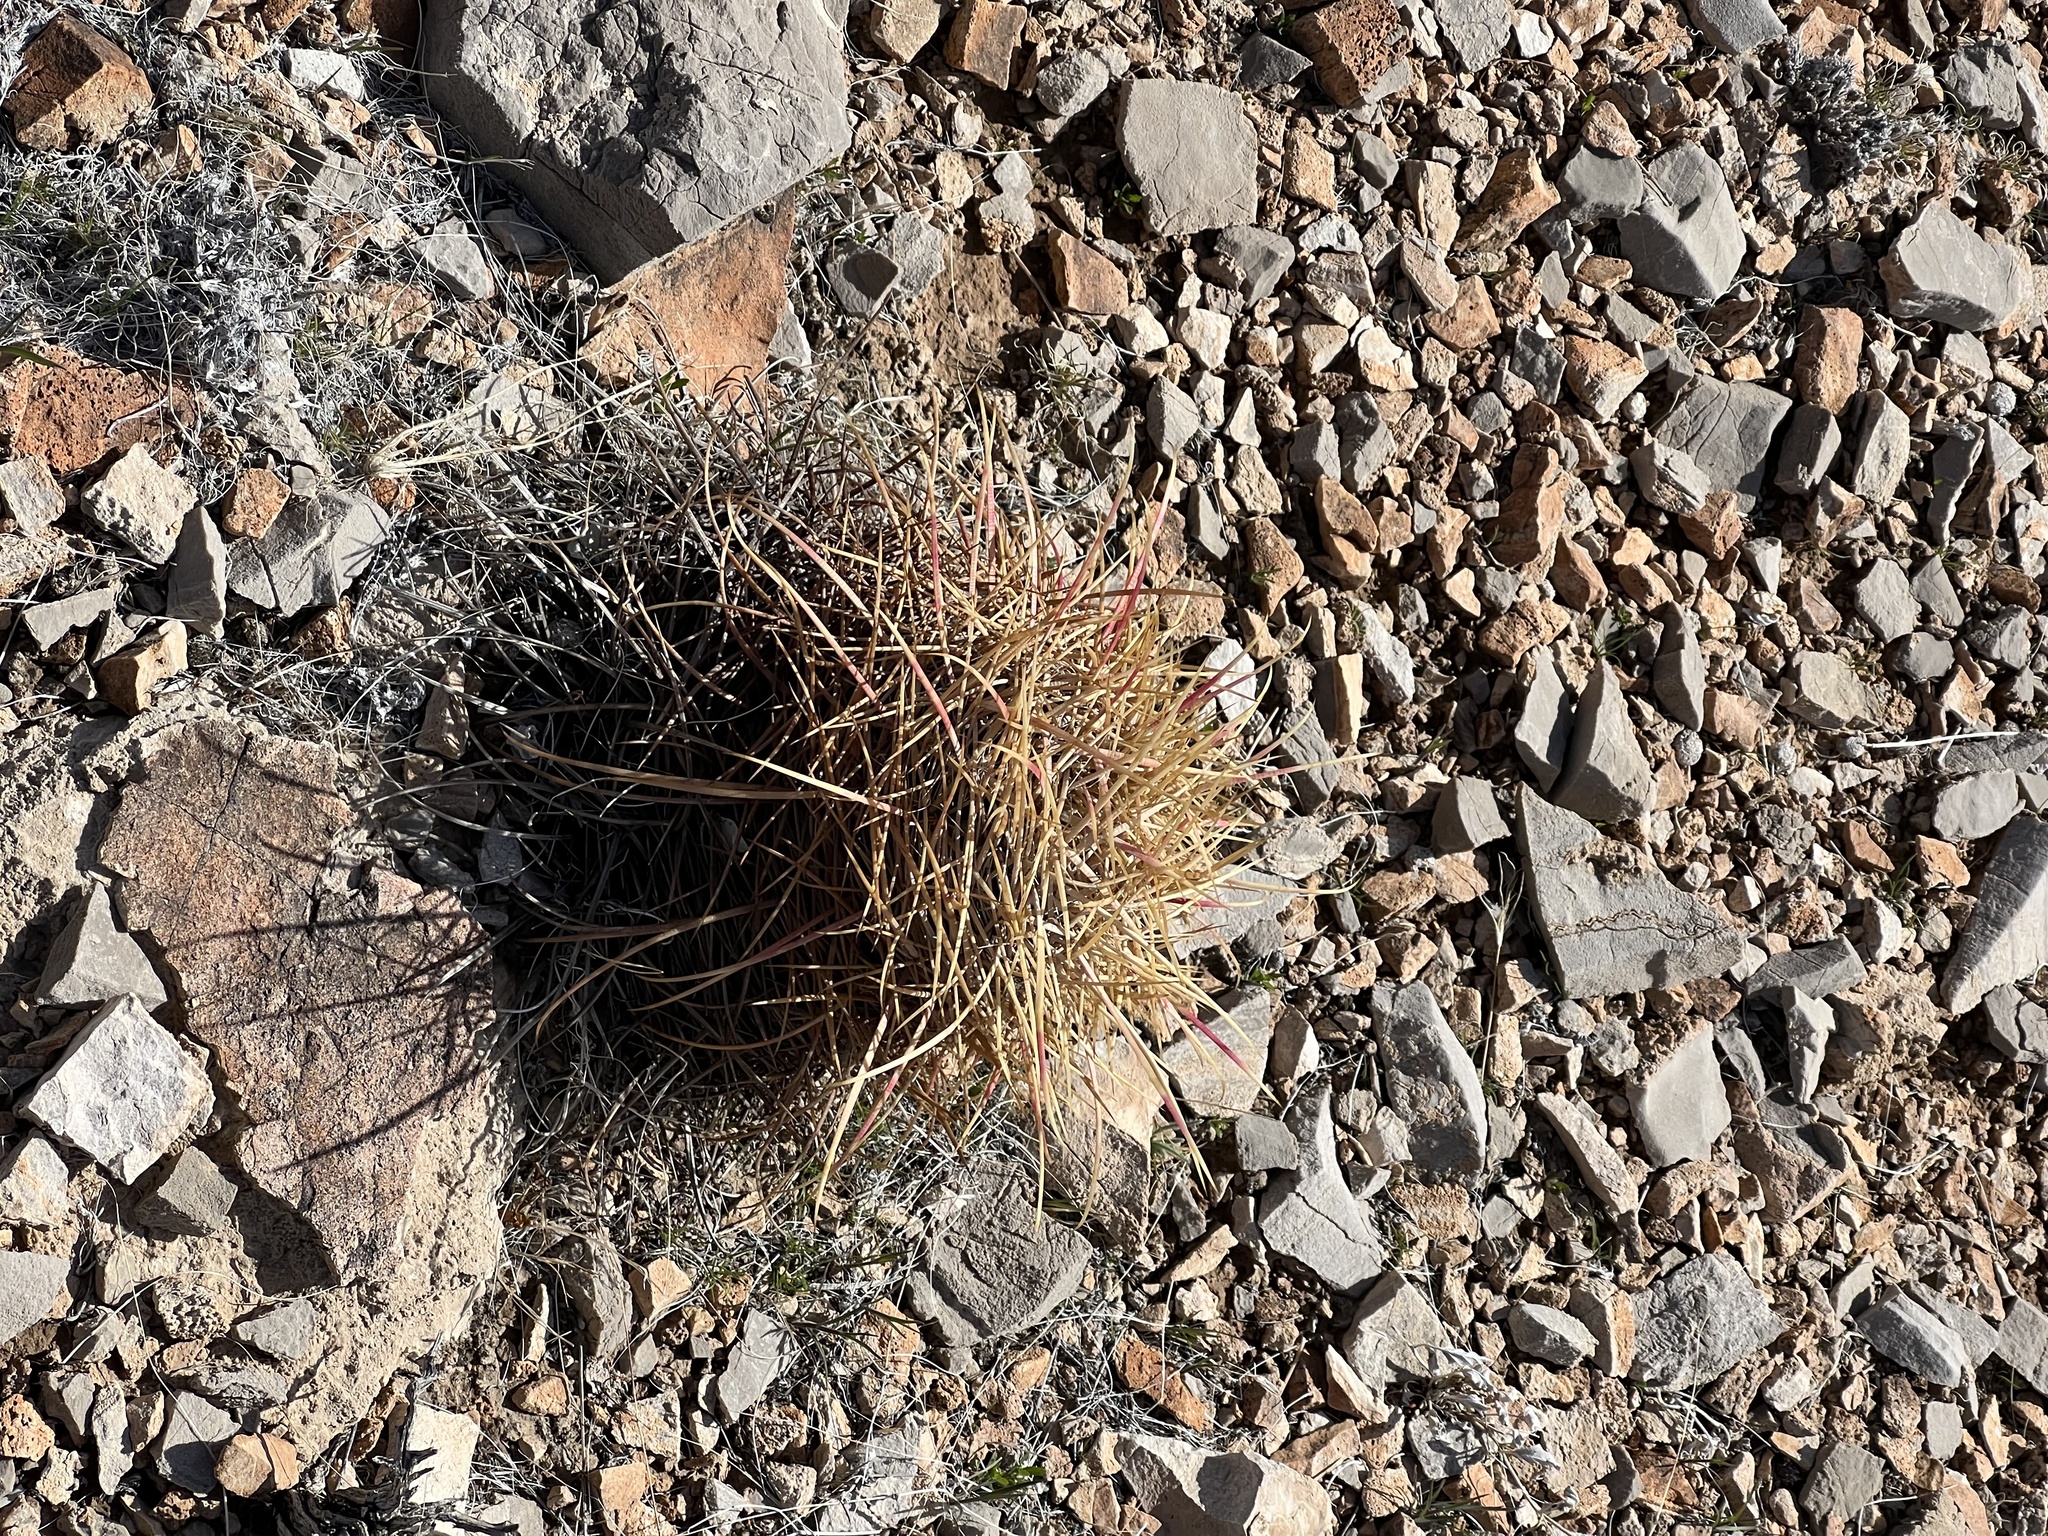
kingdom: Plantae
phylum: Tracheophyta
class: Magnoliopsida
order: Caryophyllales
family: Cactaceae
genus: Ferocactus
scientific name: Ferocactus cylindraceus
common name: California barrel cactus
